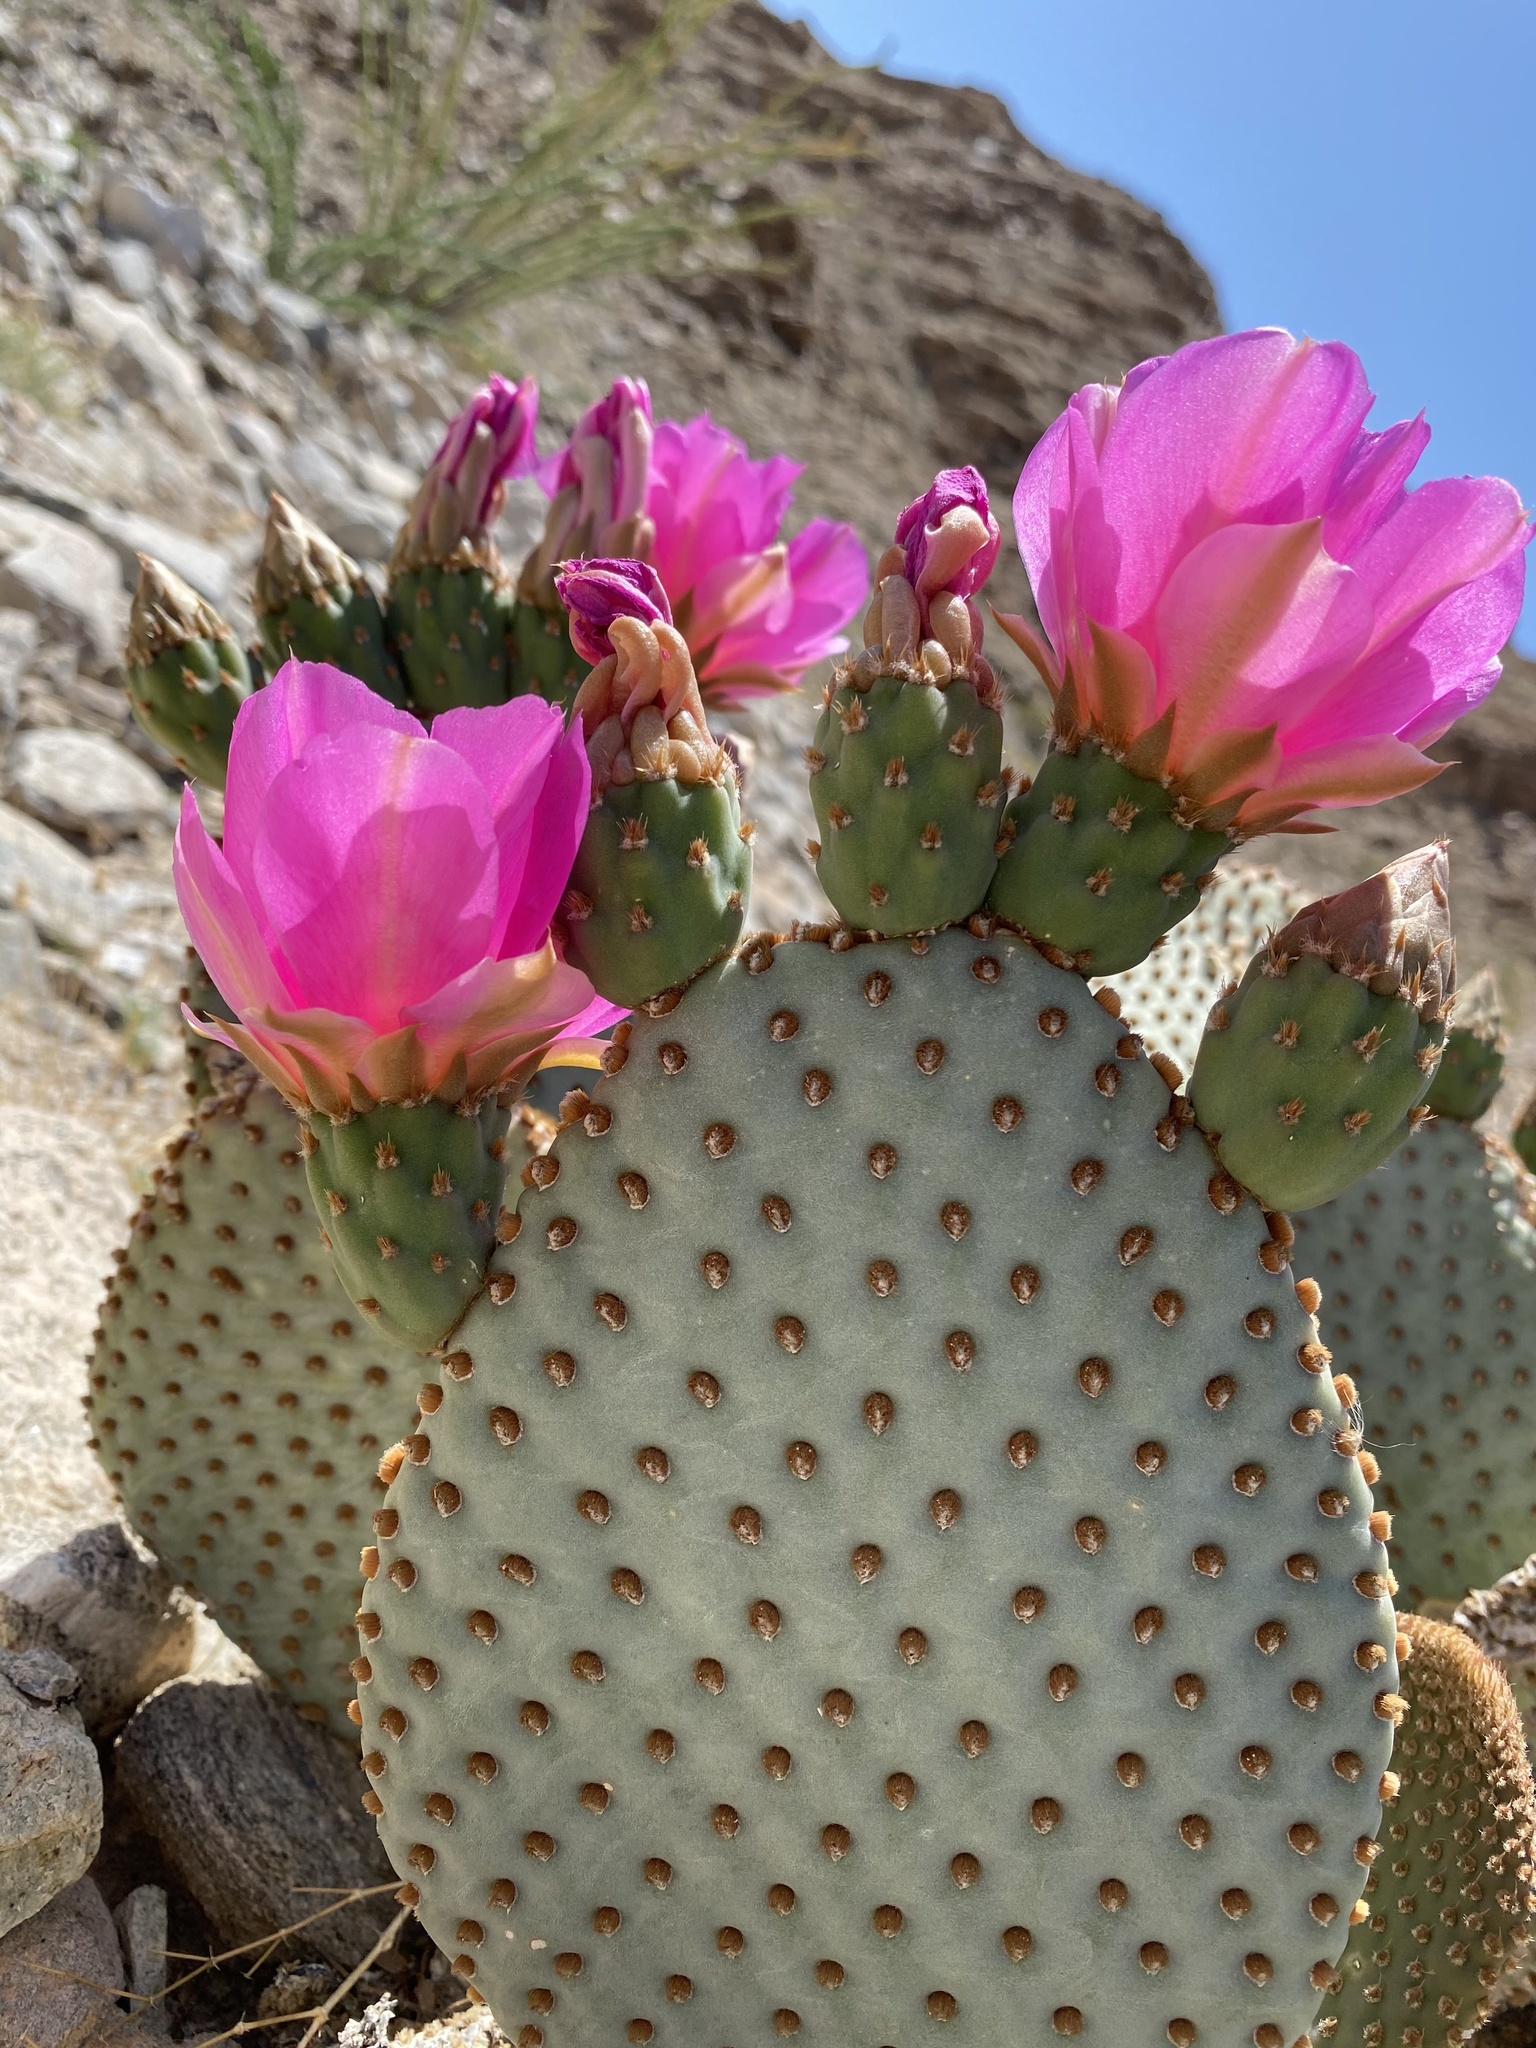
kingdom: Plantae
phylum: Tracheophyta
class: Magnoliopsida
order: Caryophyllales
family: Cactaceae
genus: Opuntia
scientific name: Opuntia basilaris
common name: Beavertail prickly-pear
